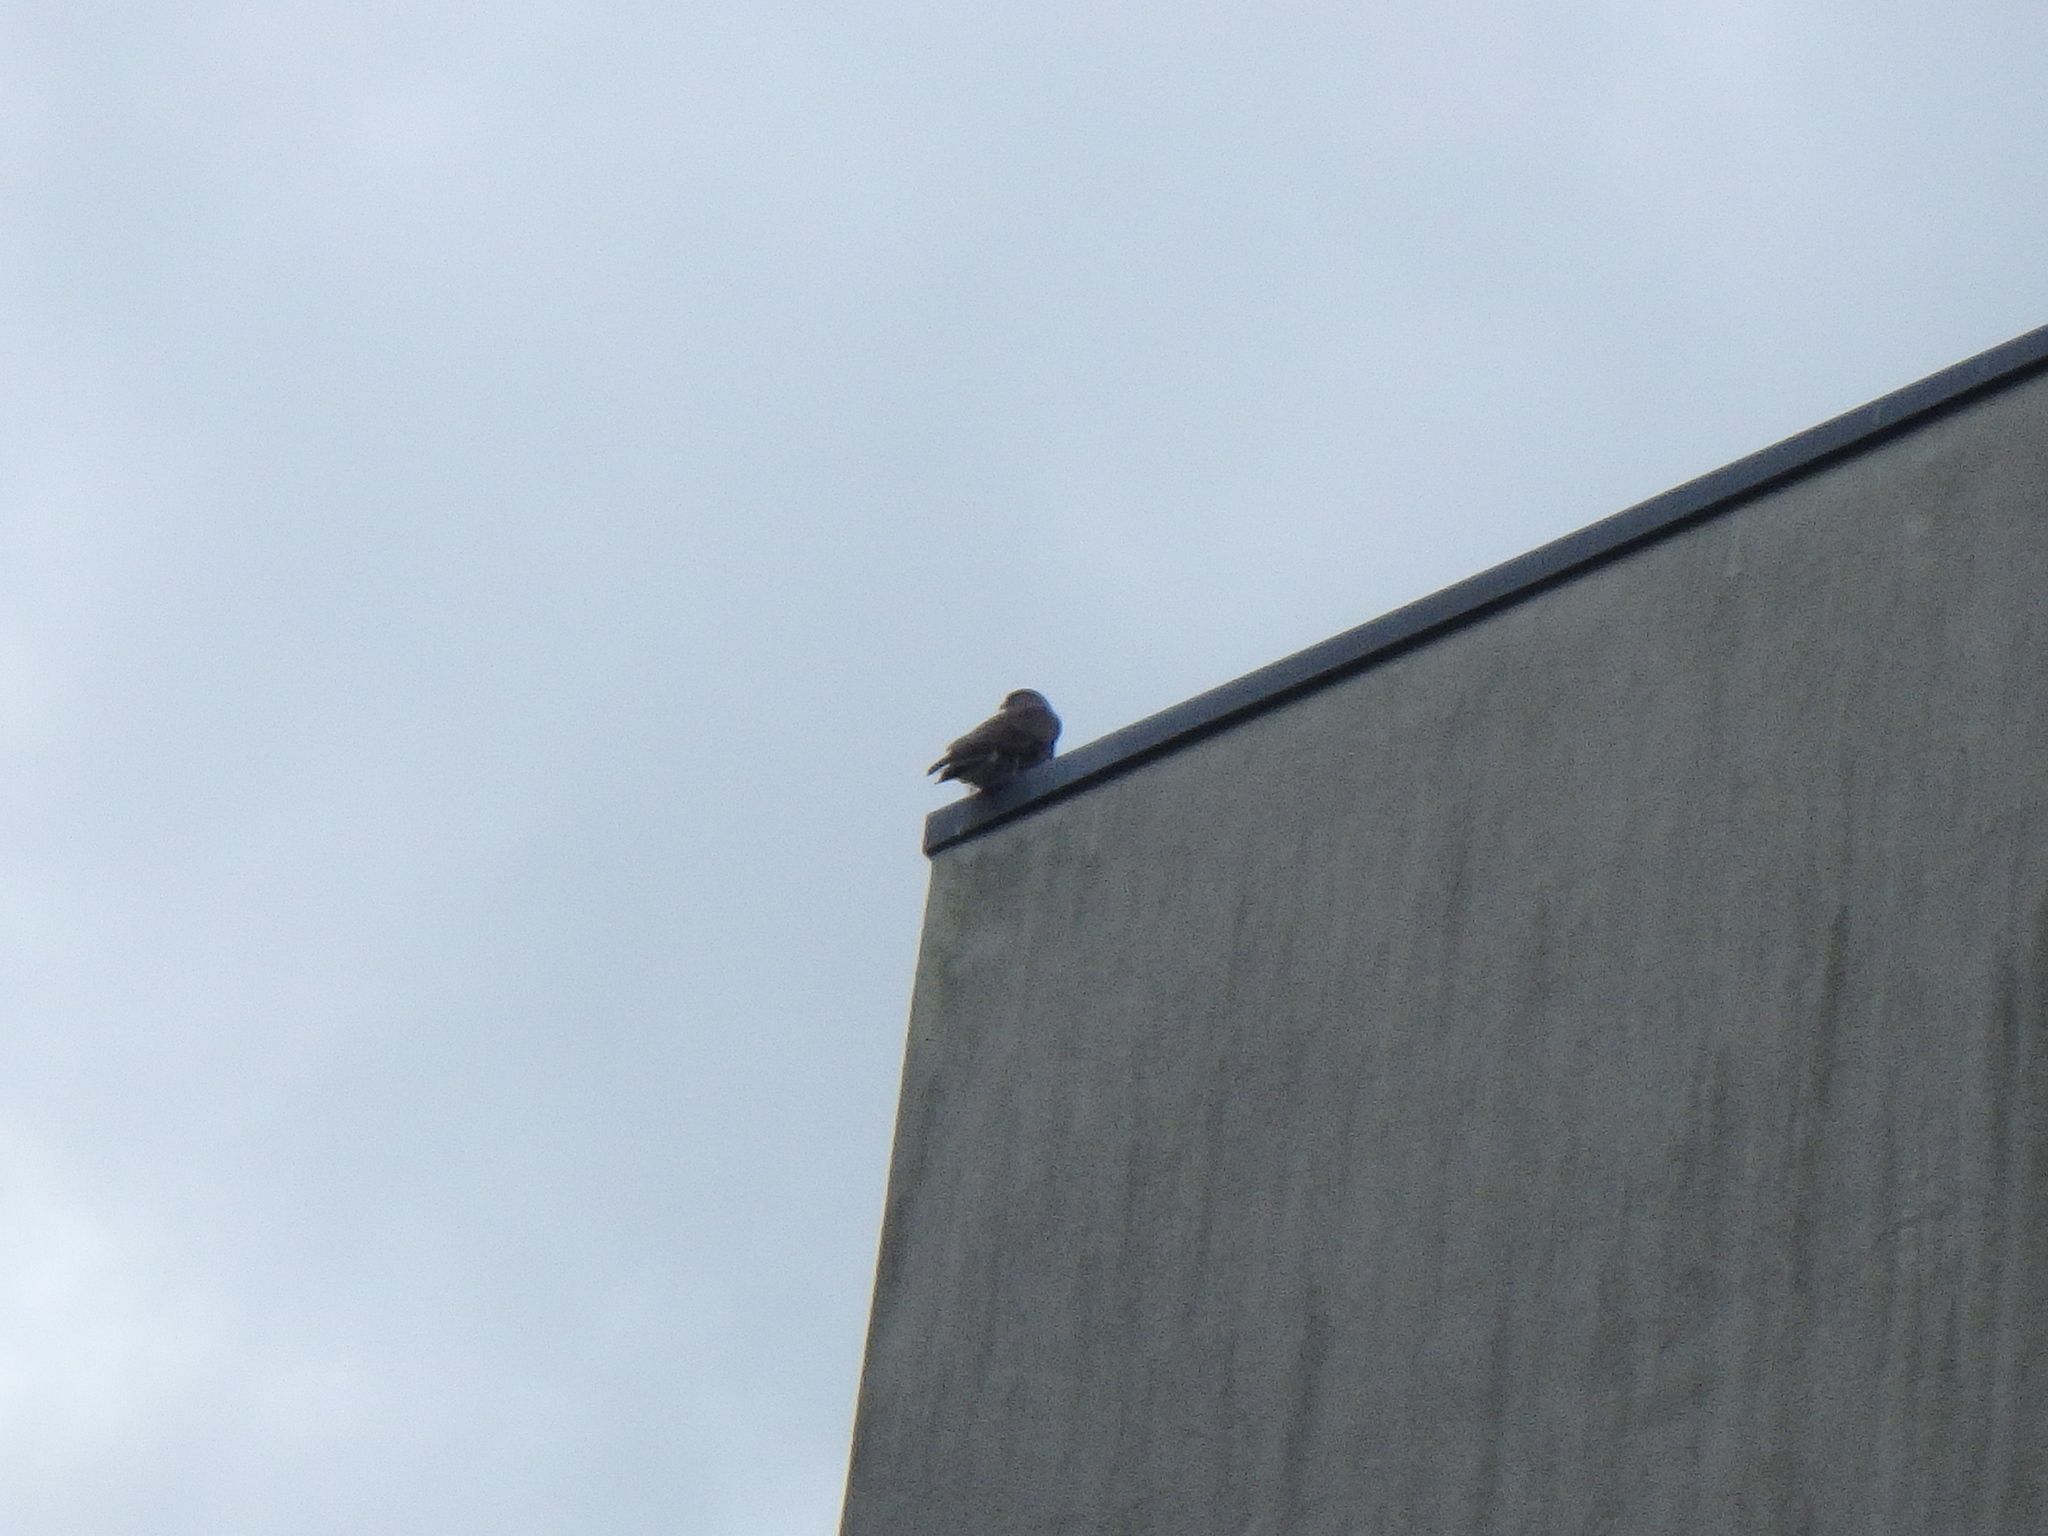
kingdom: Animalia
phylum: Chordata
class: Aves
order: Accipitriformes
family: Accipitridae
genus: Buteo
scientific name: Buteo buteo
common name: Common buzzard
